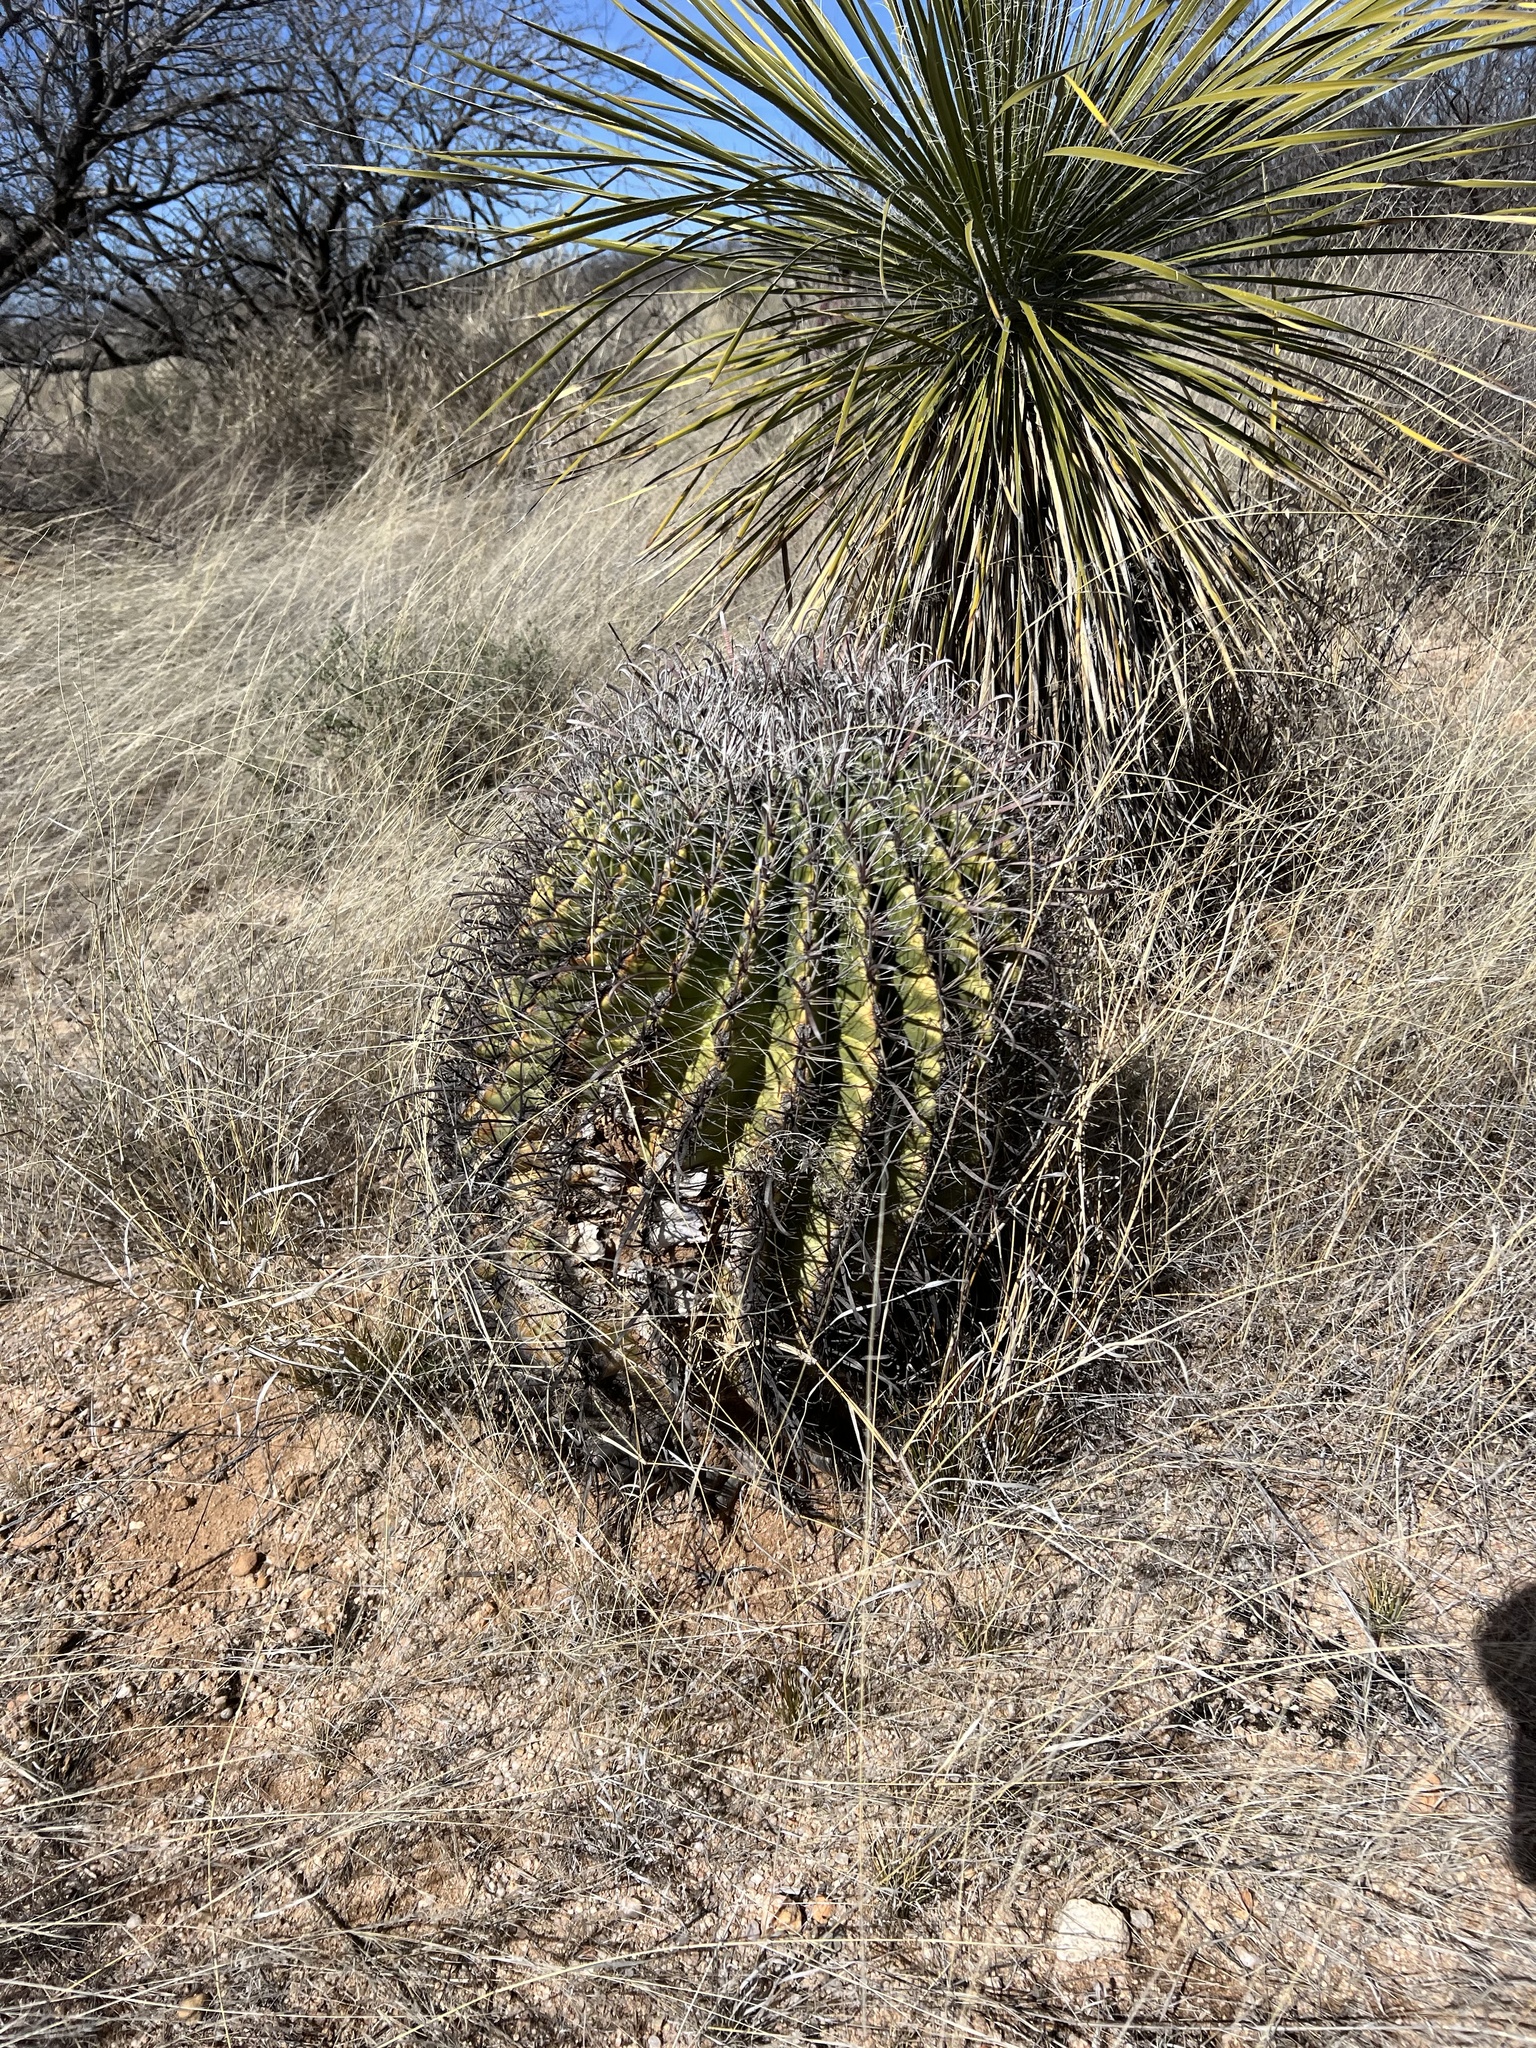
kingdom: Plantae
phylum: Tracheophyta
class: Magnoliopsida
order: Caryophyllales
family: Cactaceae
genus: Ferocactus
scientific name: Ferocactus wislizeni
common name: Candy barrel cactus
